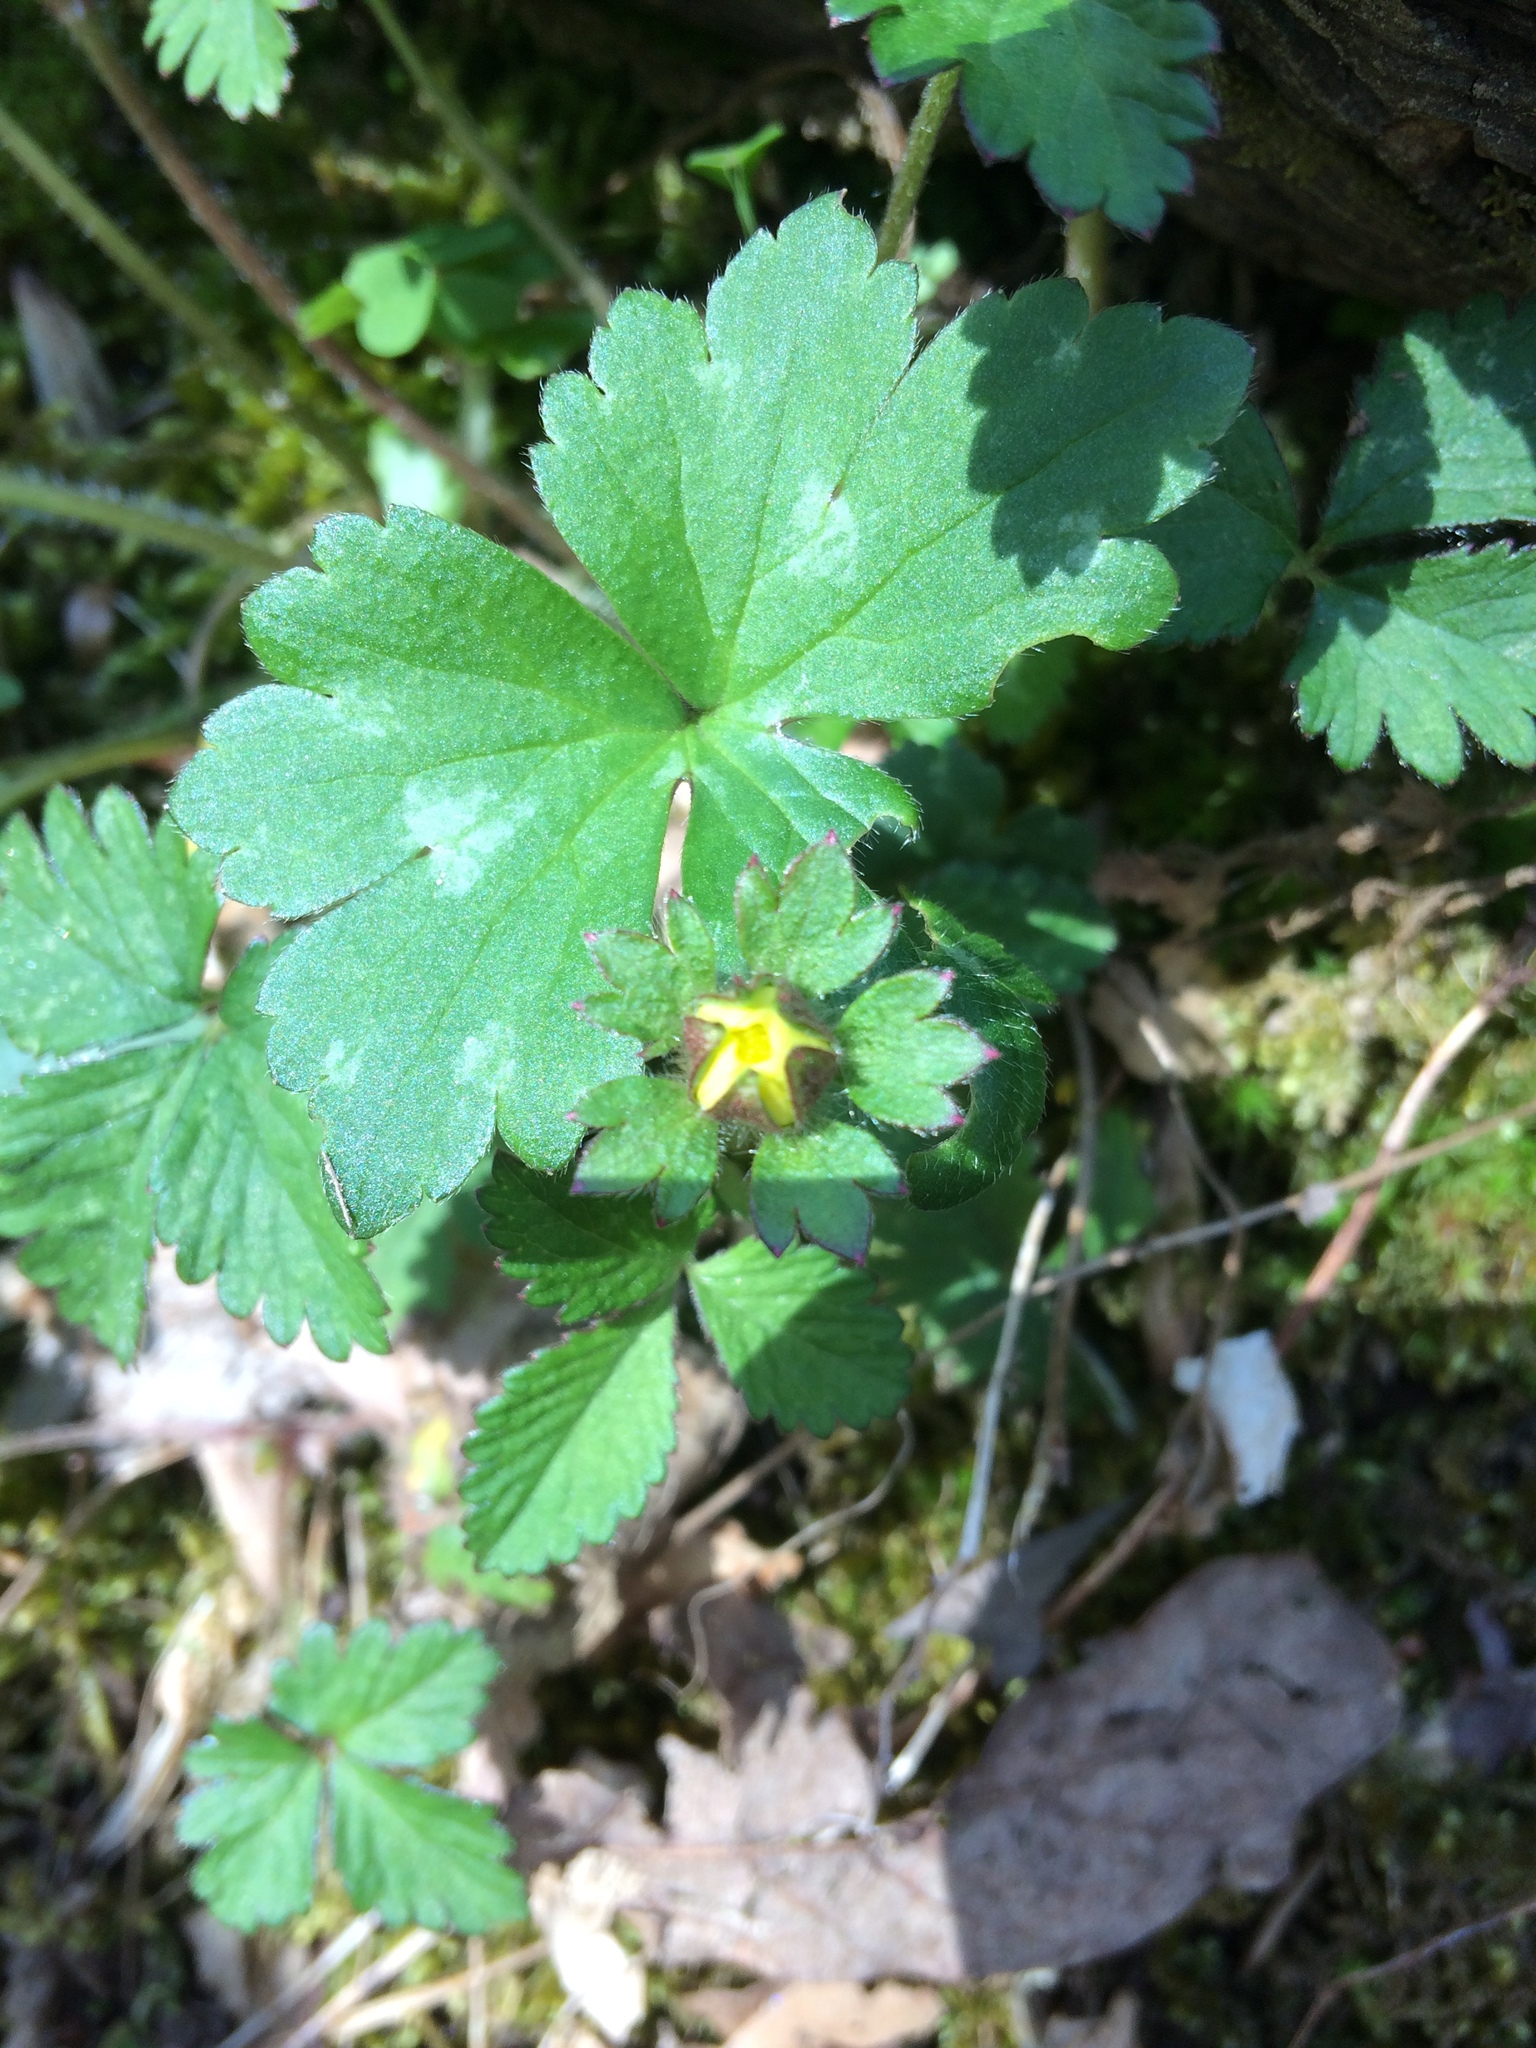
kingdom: Plantae
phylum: Tracheophyta
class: Magnoliopsida
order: Rosales
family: Rosaceae
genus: Potentilla
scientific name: Potentilla indica
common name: Yellow-flowered strawberry
